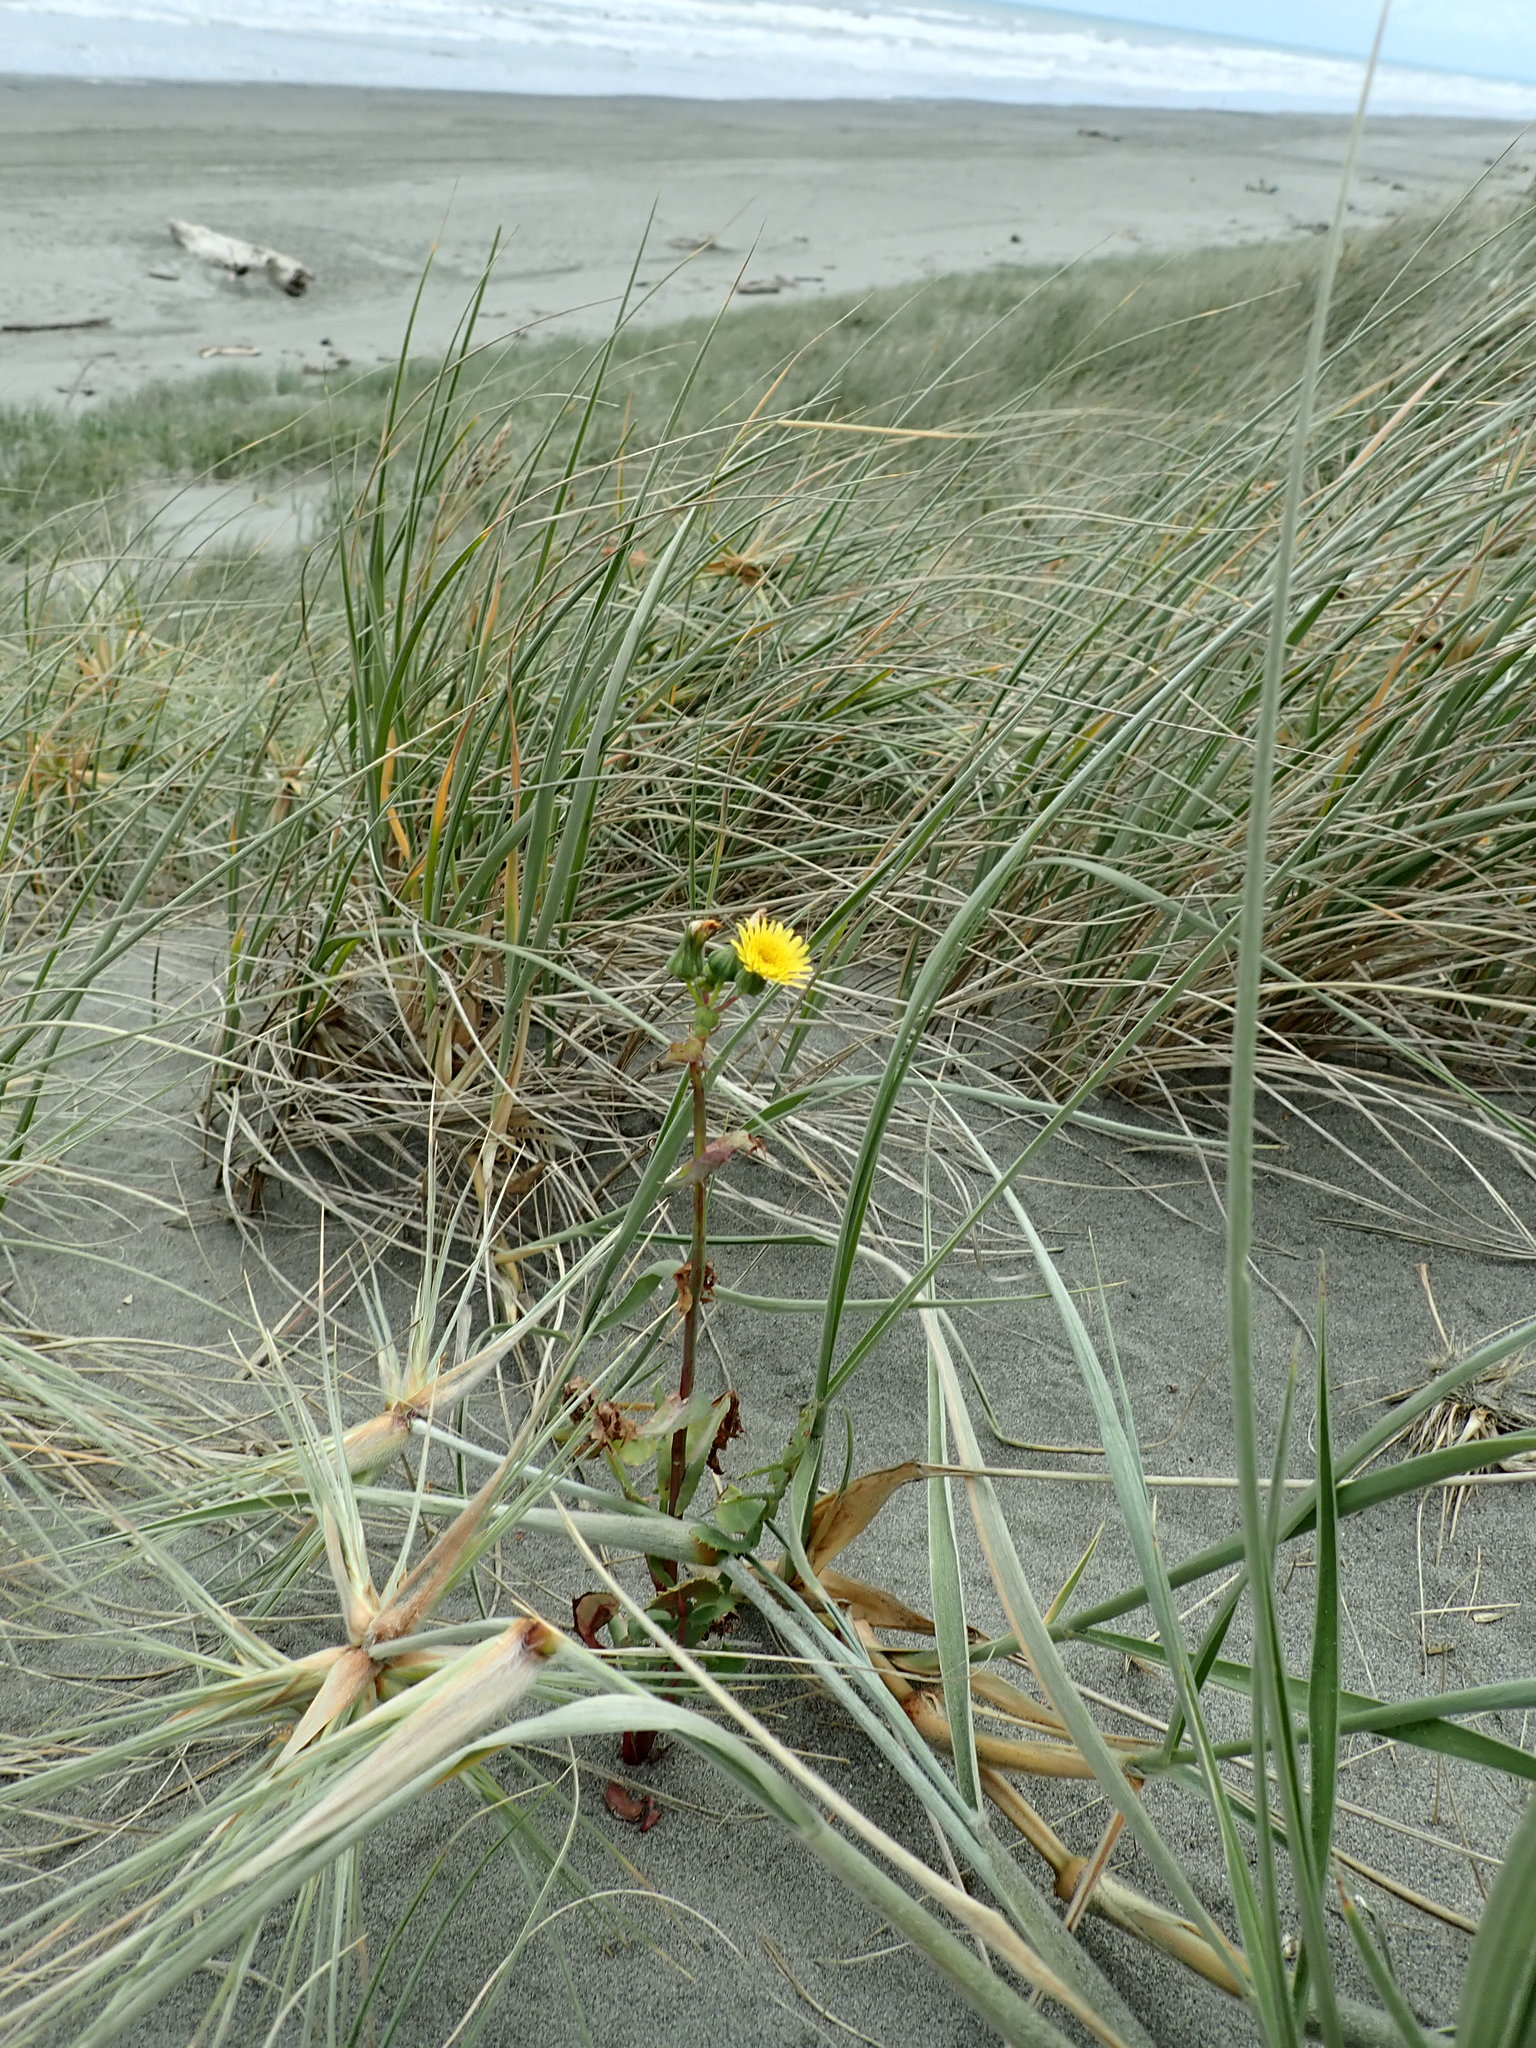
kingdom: Plantae
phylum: Tracheophyta
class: Magnoliopsida
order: Asterales
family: Asteraceae
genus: Sonchus
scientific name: Sonchus oleraceus
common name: Common sowthistle
